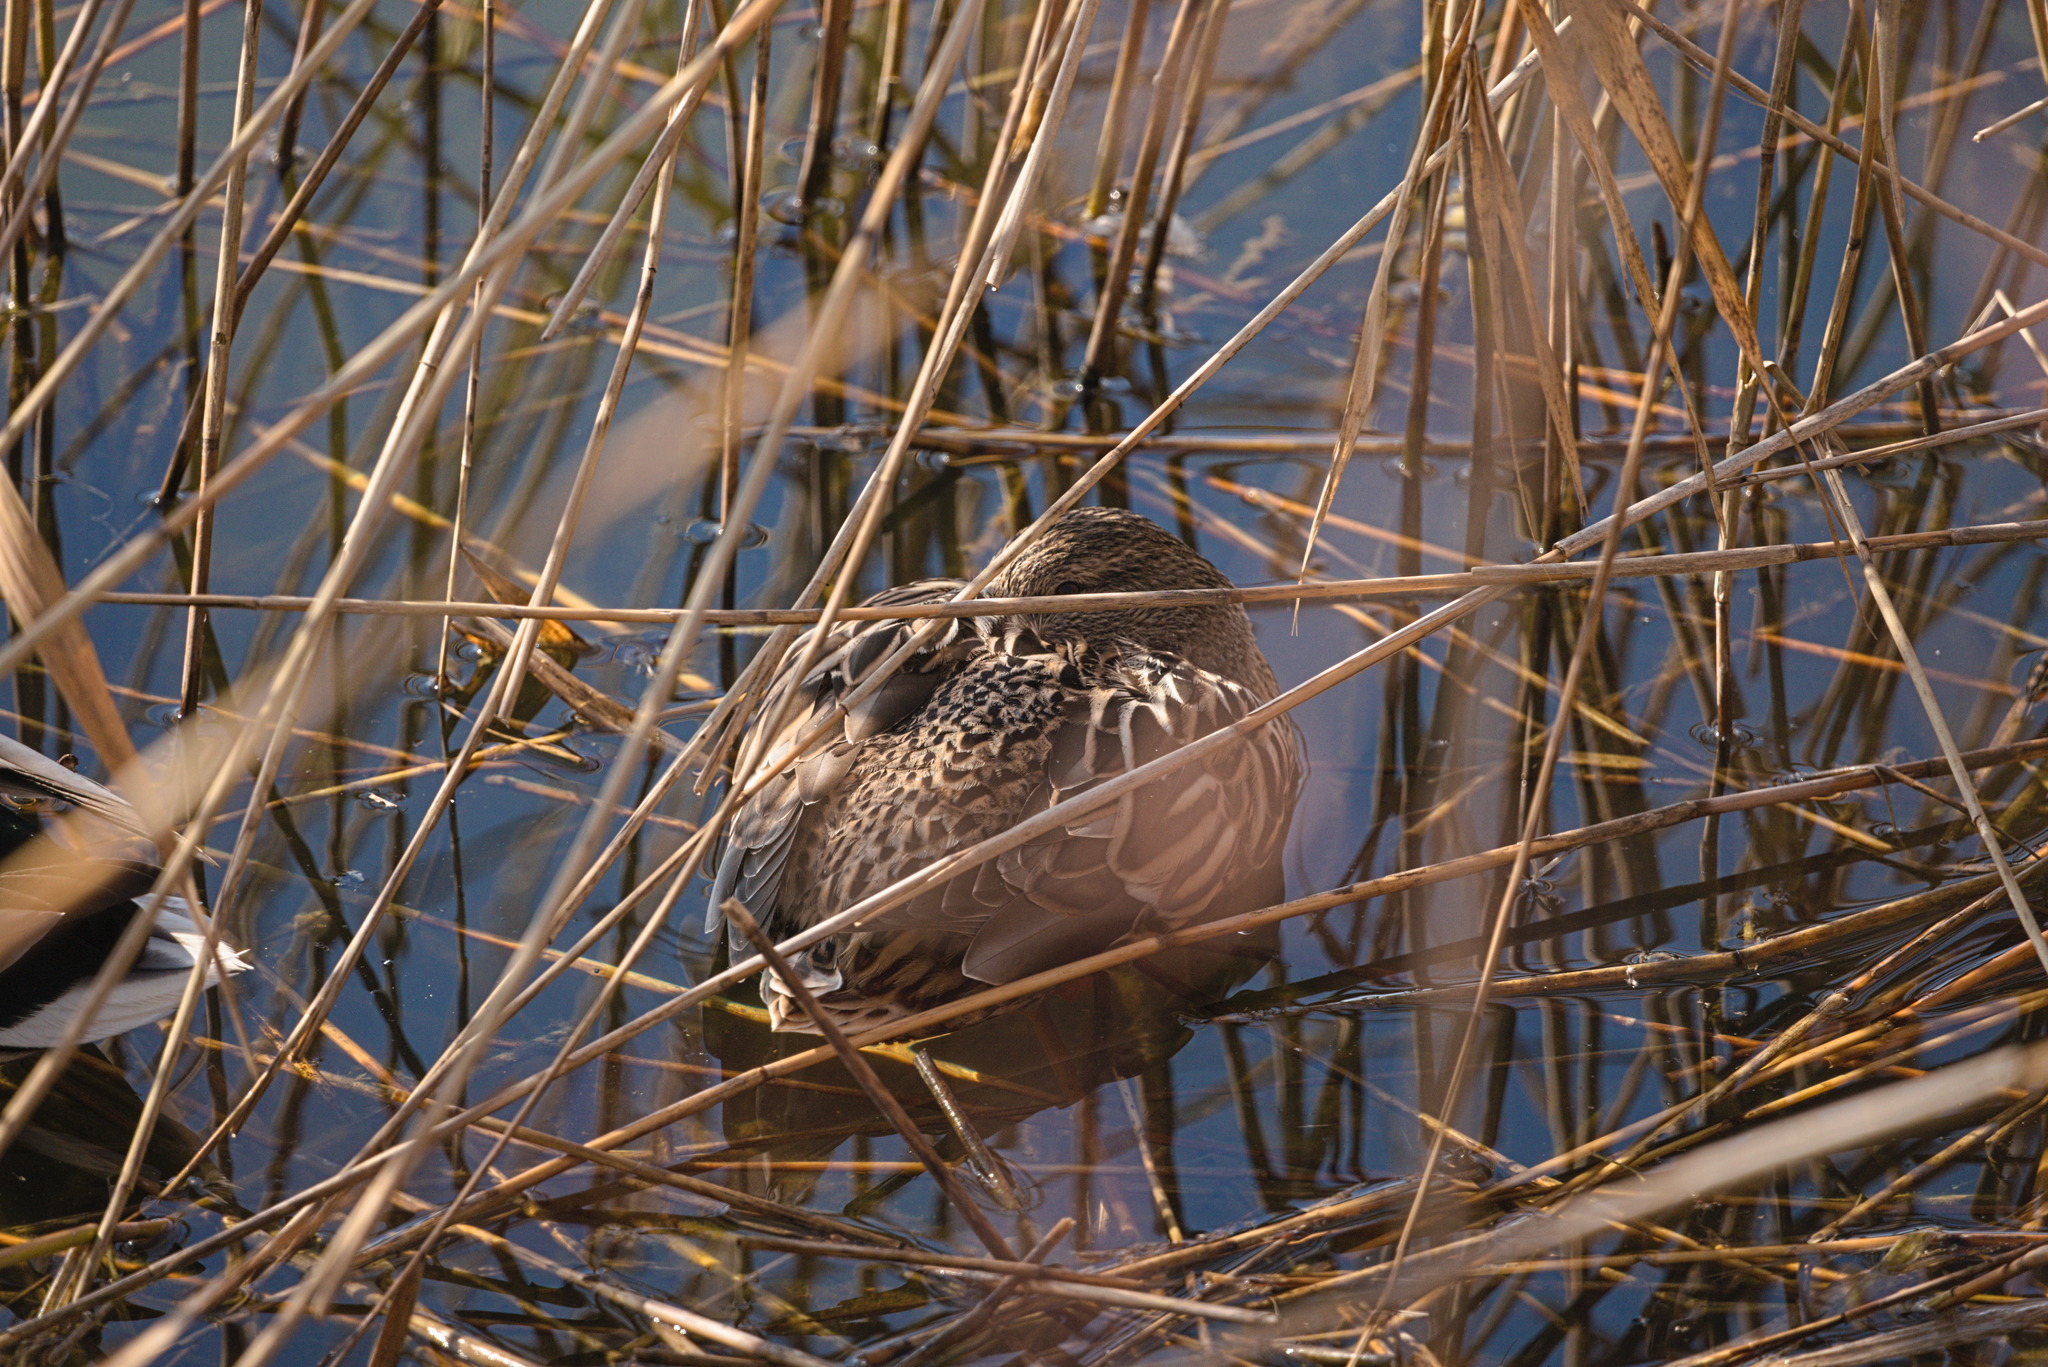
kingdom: Animalia
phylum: Chordata
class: Aves
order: Anseriformes
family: Anatidae
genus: Anas
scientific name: Anas platyrhynchos
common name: Mallard
